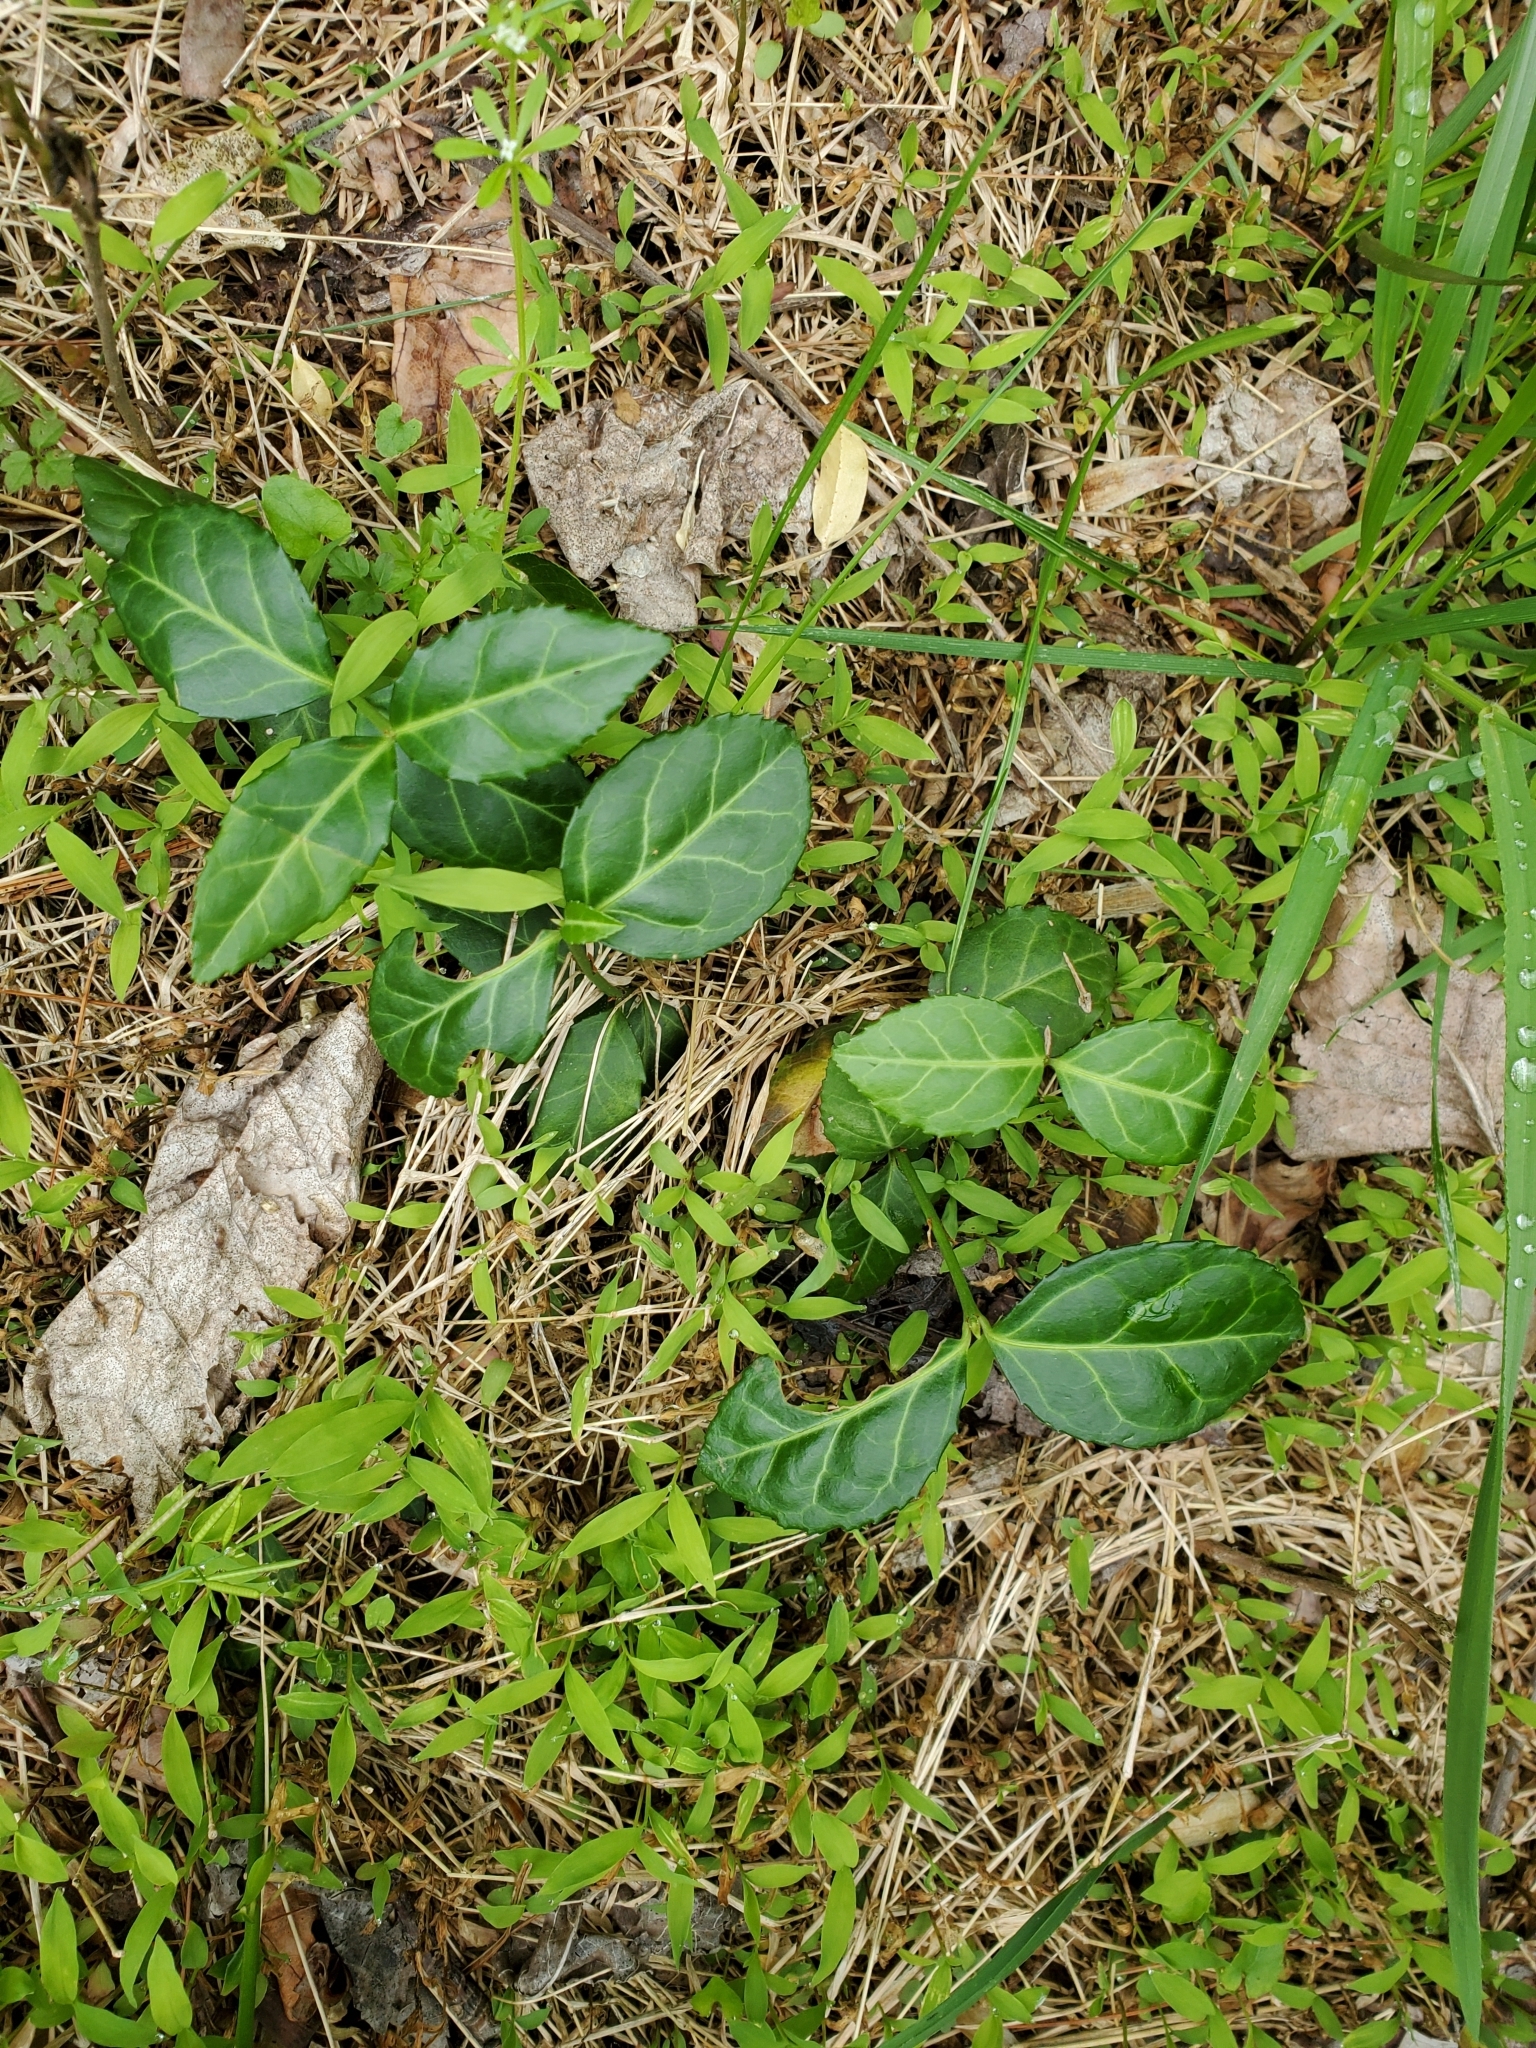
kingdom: Plantae
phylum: Tracheophyta
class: Magnoliopsida
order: Celastrales
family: Celastraceae
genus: Euonymus
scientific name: Euonymus fortunei
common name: Climbing euonymus
